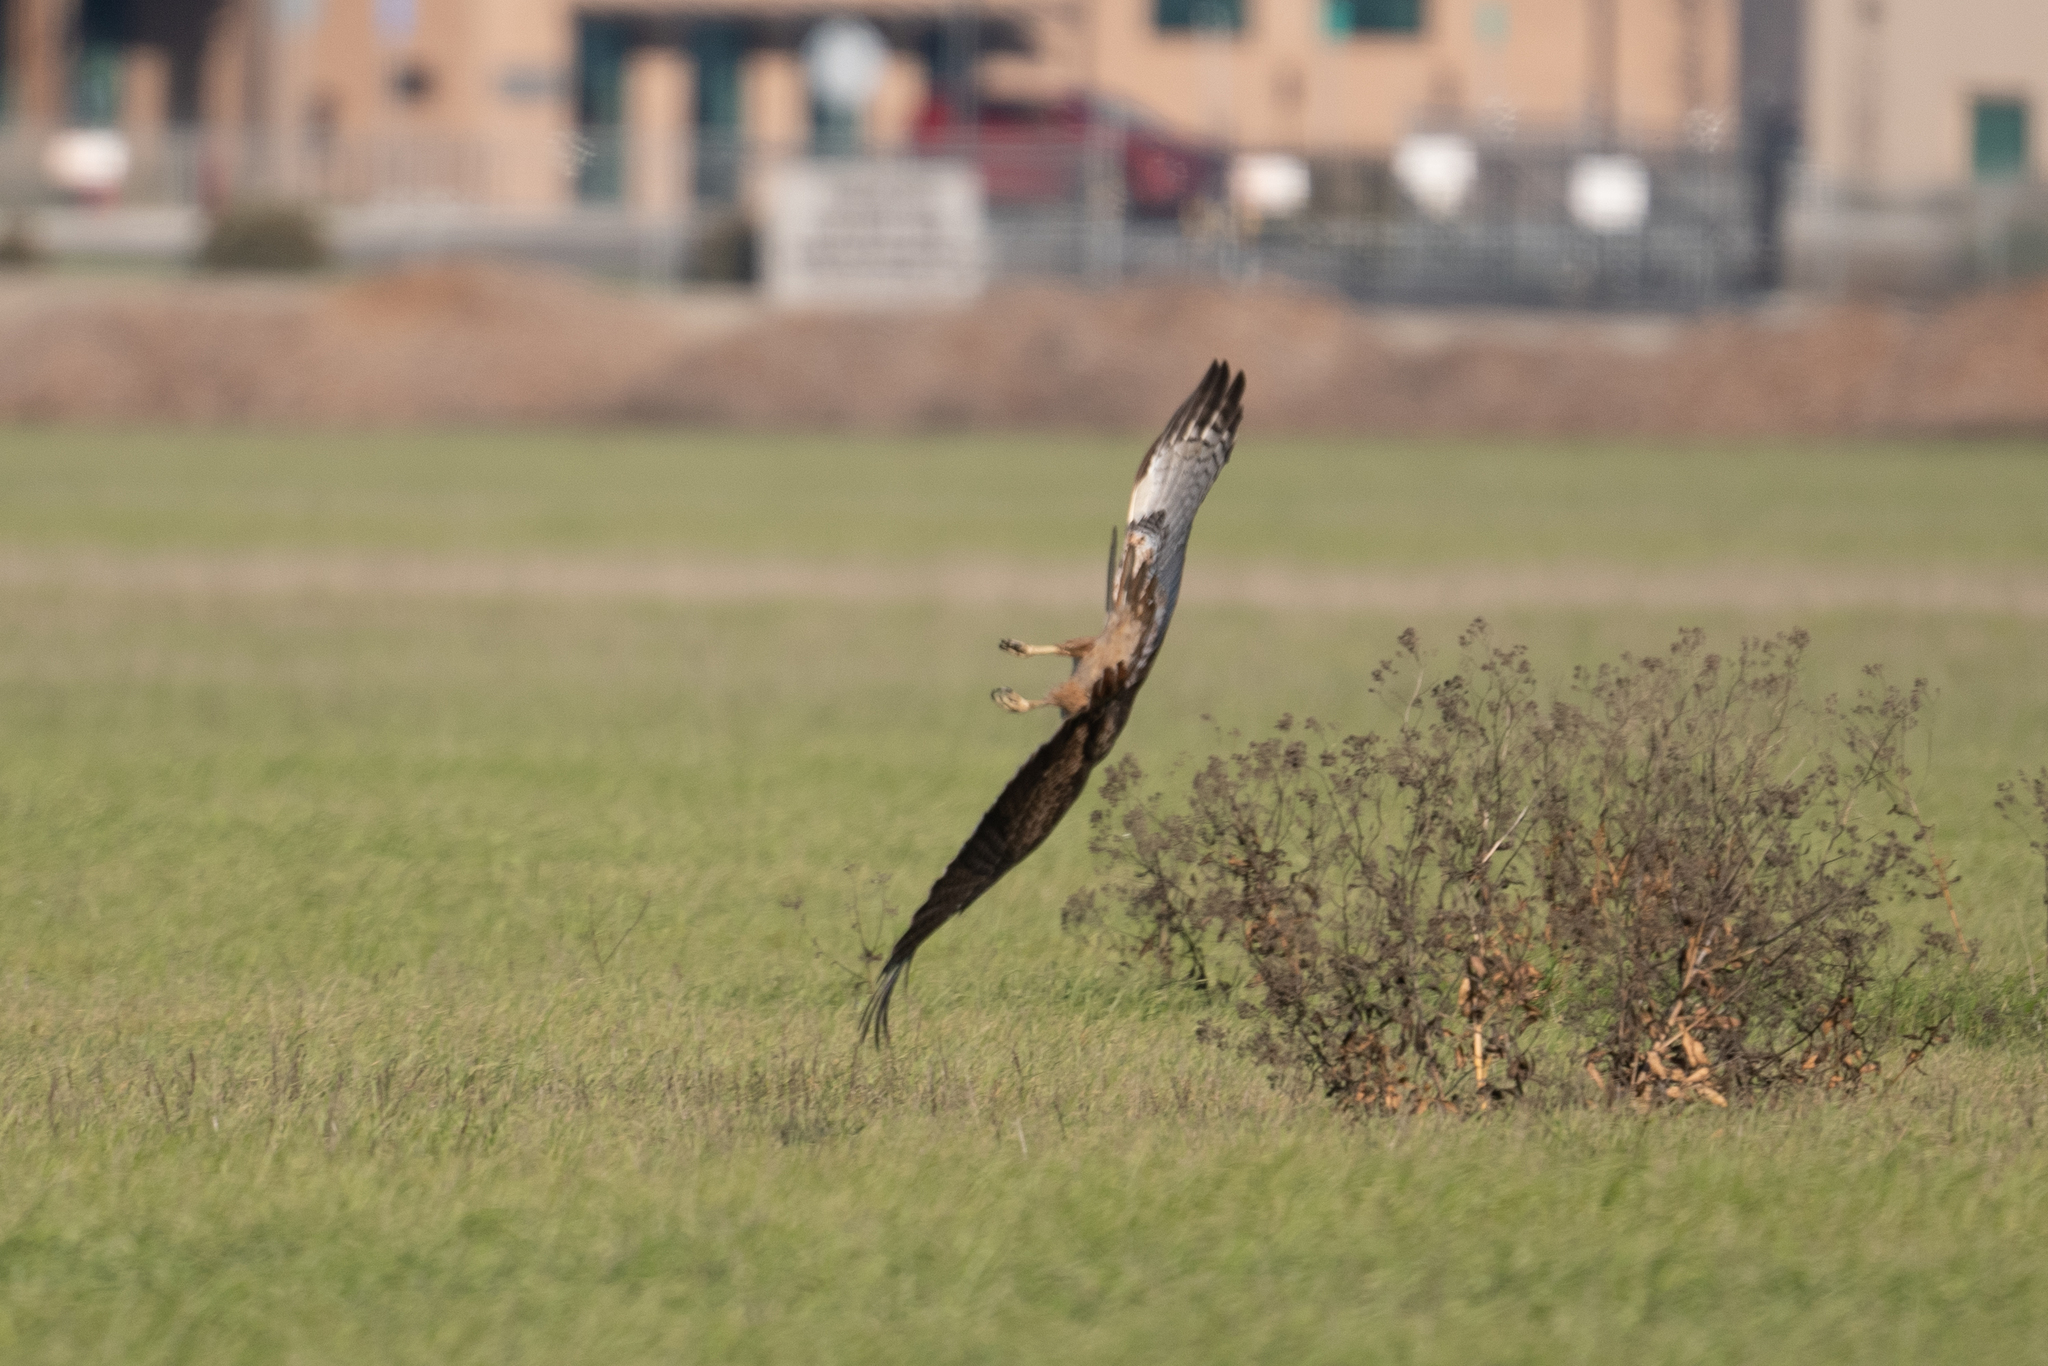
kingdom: Animalia
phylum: Chordata
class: Aves
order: Accipitriformes
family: Accipitridae
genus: Buteo
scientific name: Buteo jamaicensis
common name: Red-tailed hawk
